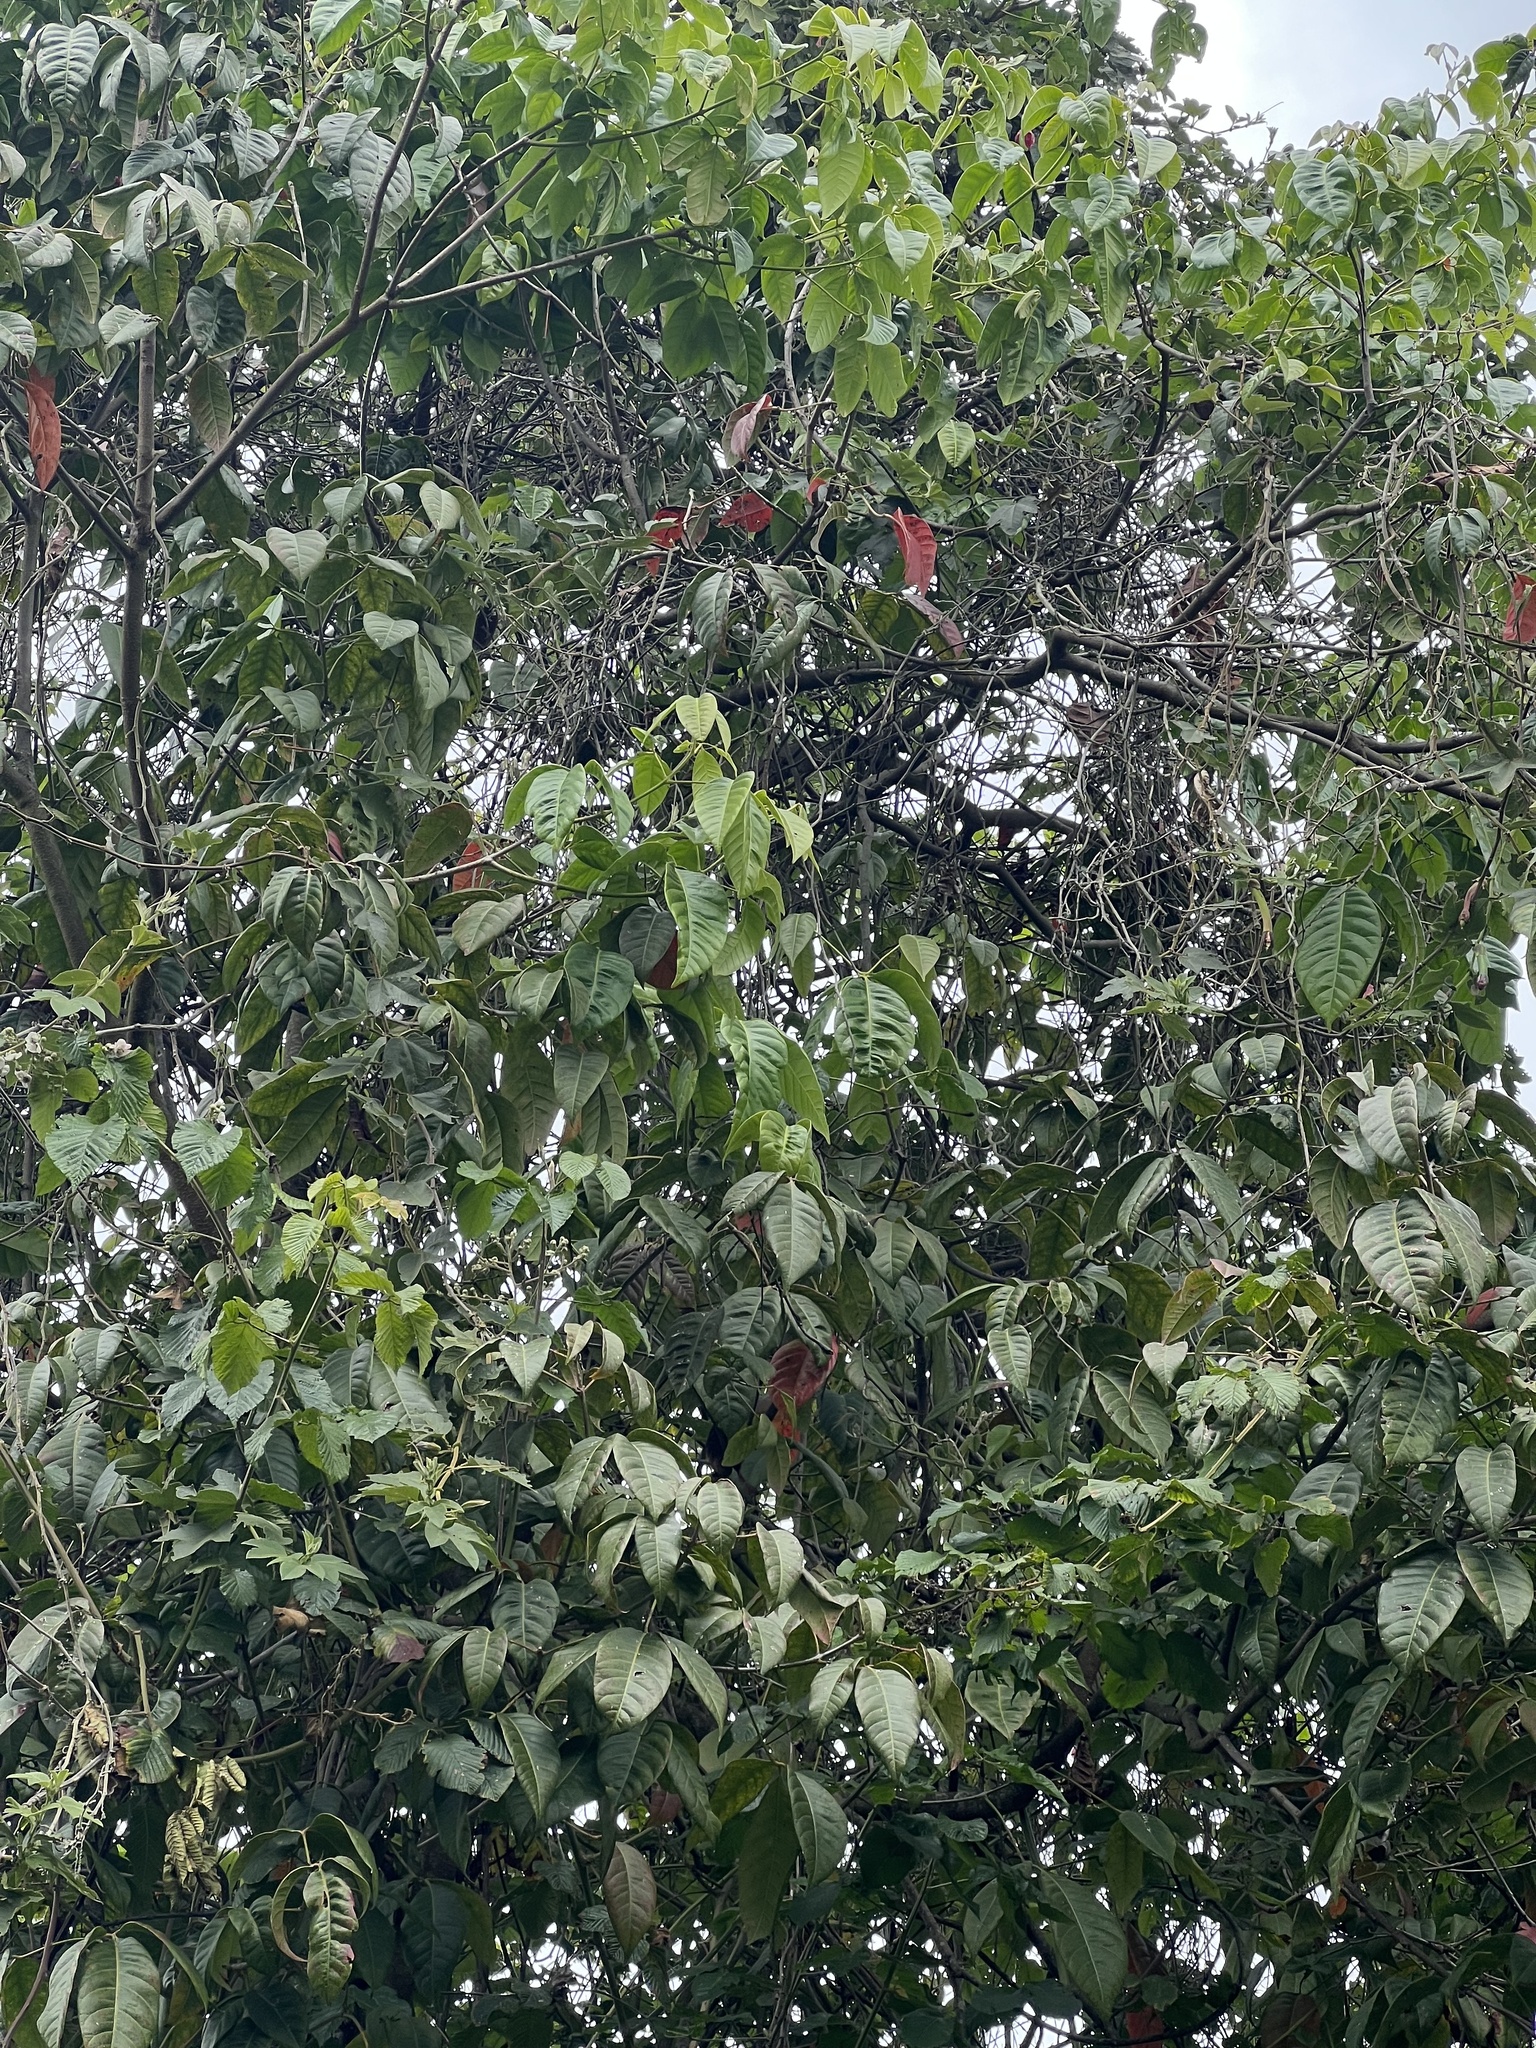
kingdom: Plantae
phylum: Tracheophyta
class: Magnoliopsida
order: Sapindales
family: Sapindaceae
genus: Billia
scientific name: Billia rosea
